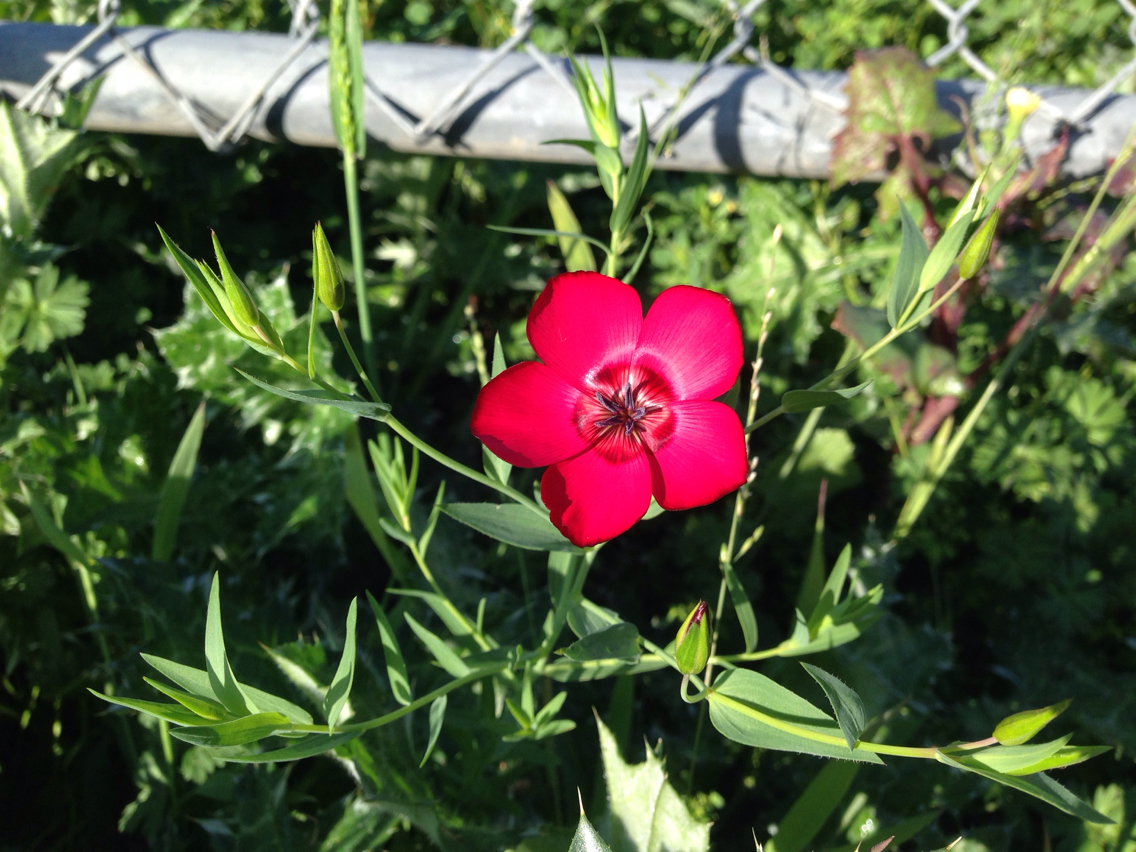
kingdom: Plantae
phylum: Tracheophyta
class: Magnoliopsida
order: Malpighiales
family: Linaceae
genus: Linum
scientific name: Linum grandiflorum
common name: Crimson flax
